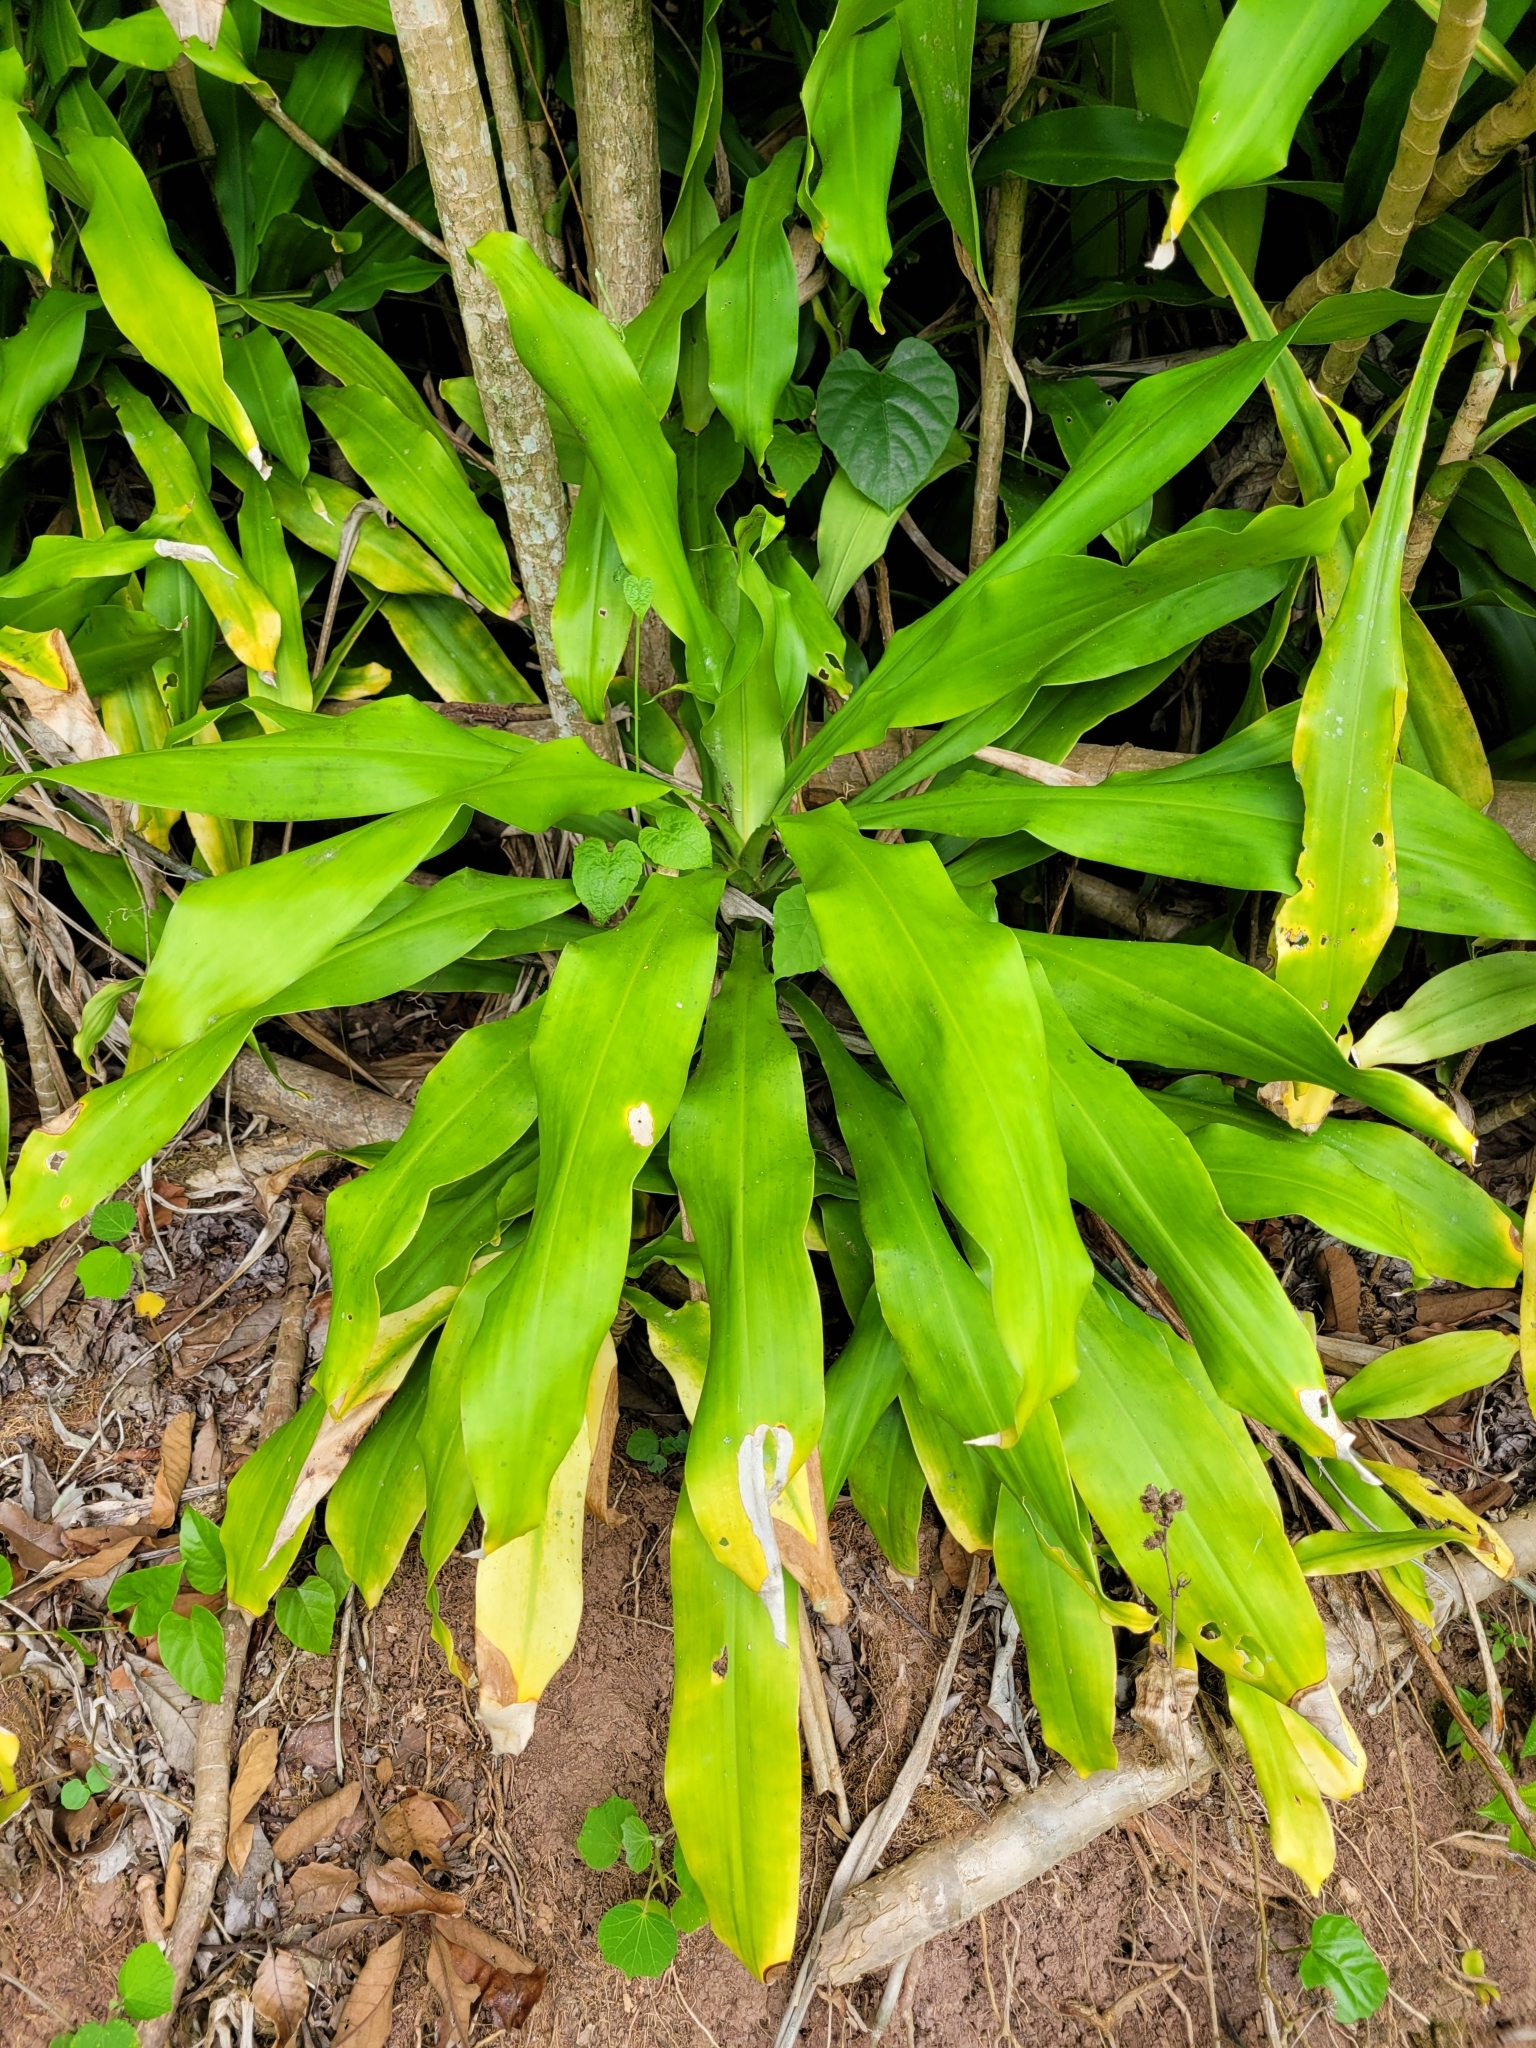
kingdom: Plantae
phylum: Tracheophyta
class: Liliopsida
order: Asparagales
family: Asparagaceae
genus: Dracaena
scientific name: Dracaena fragrans
